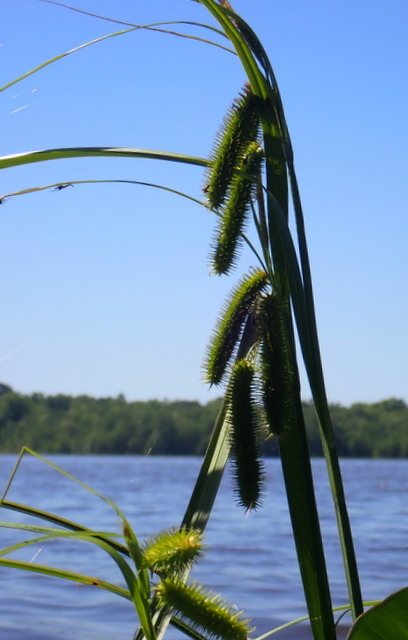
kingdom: Plantae
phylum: Tracheophyta
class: Liliopsida
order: Poales
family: Cyperaceae
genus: Carex
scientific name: Carex comosa
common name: Bristly sedge
